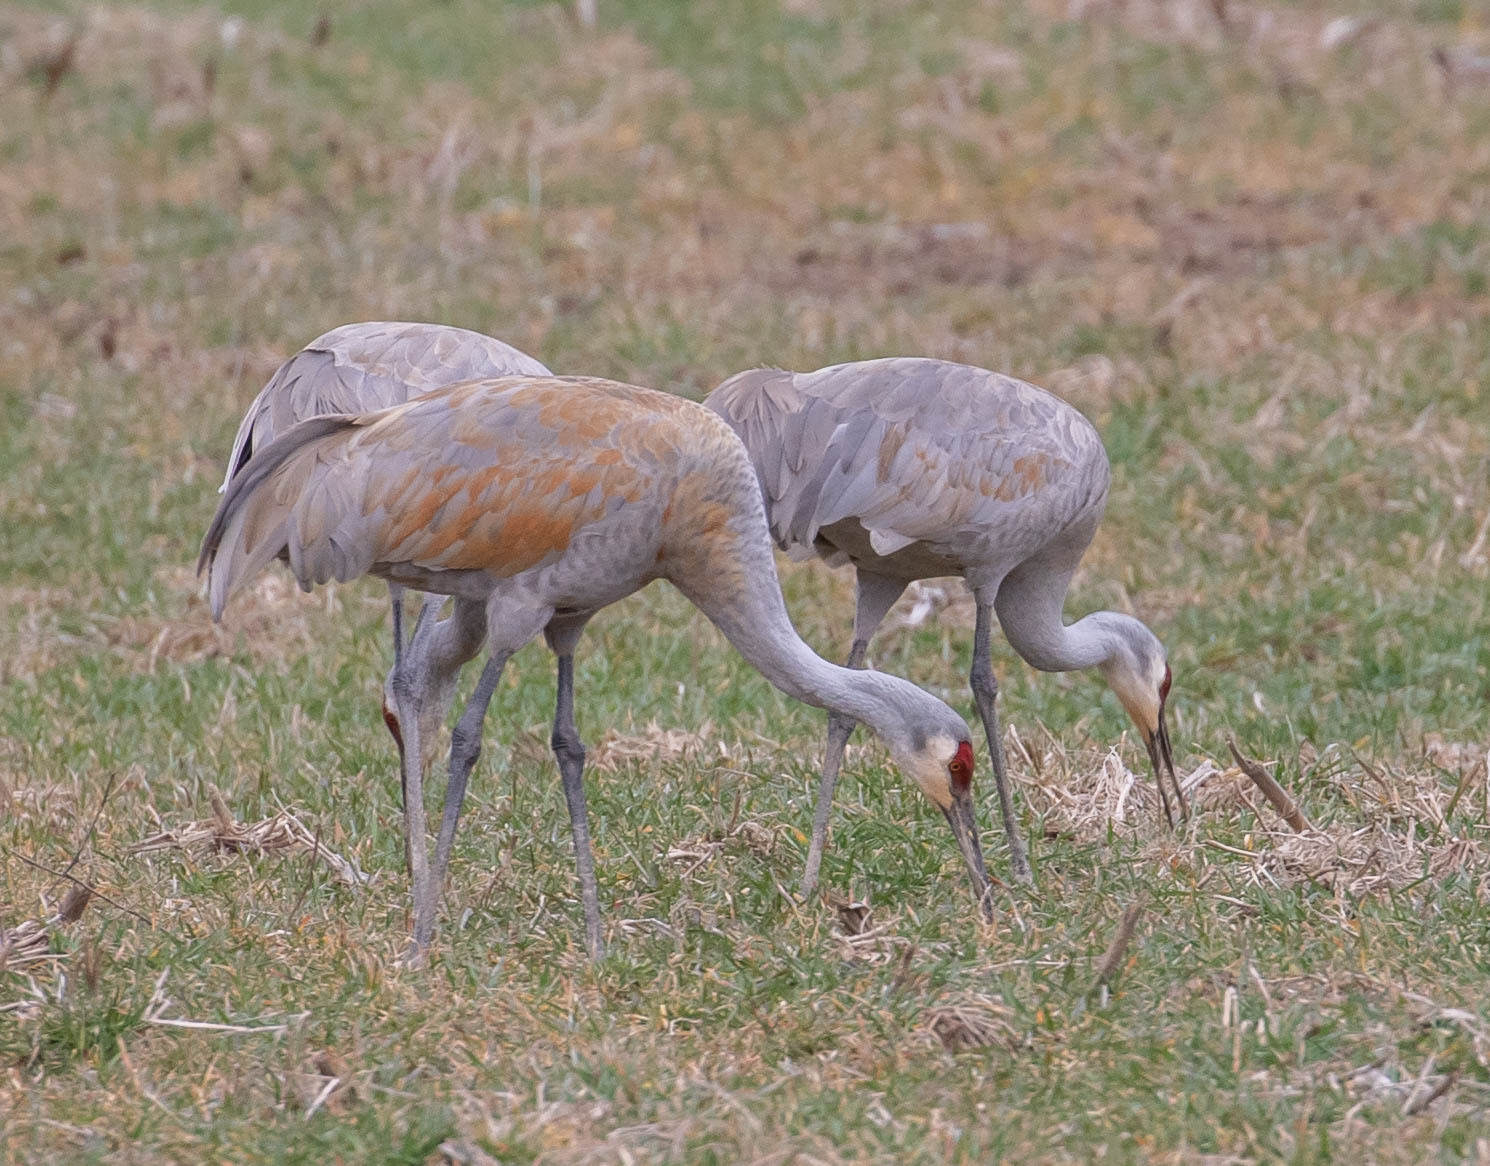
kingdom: Animalia
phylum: Chordata
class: Aves
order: Gruiformes
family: Gruidae
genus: Grus
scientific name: Grus canadensis
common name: Sandhill crane
